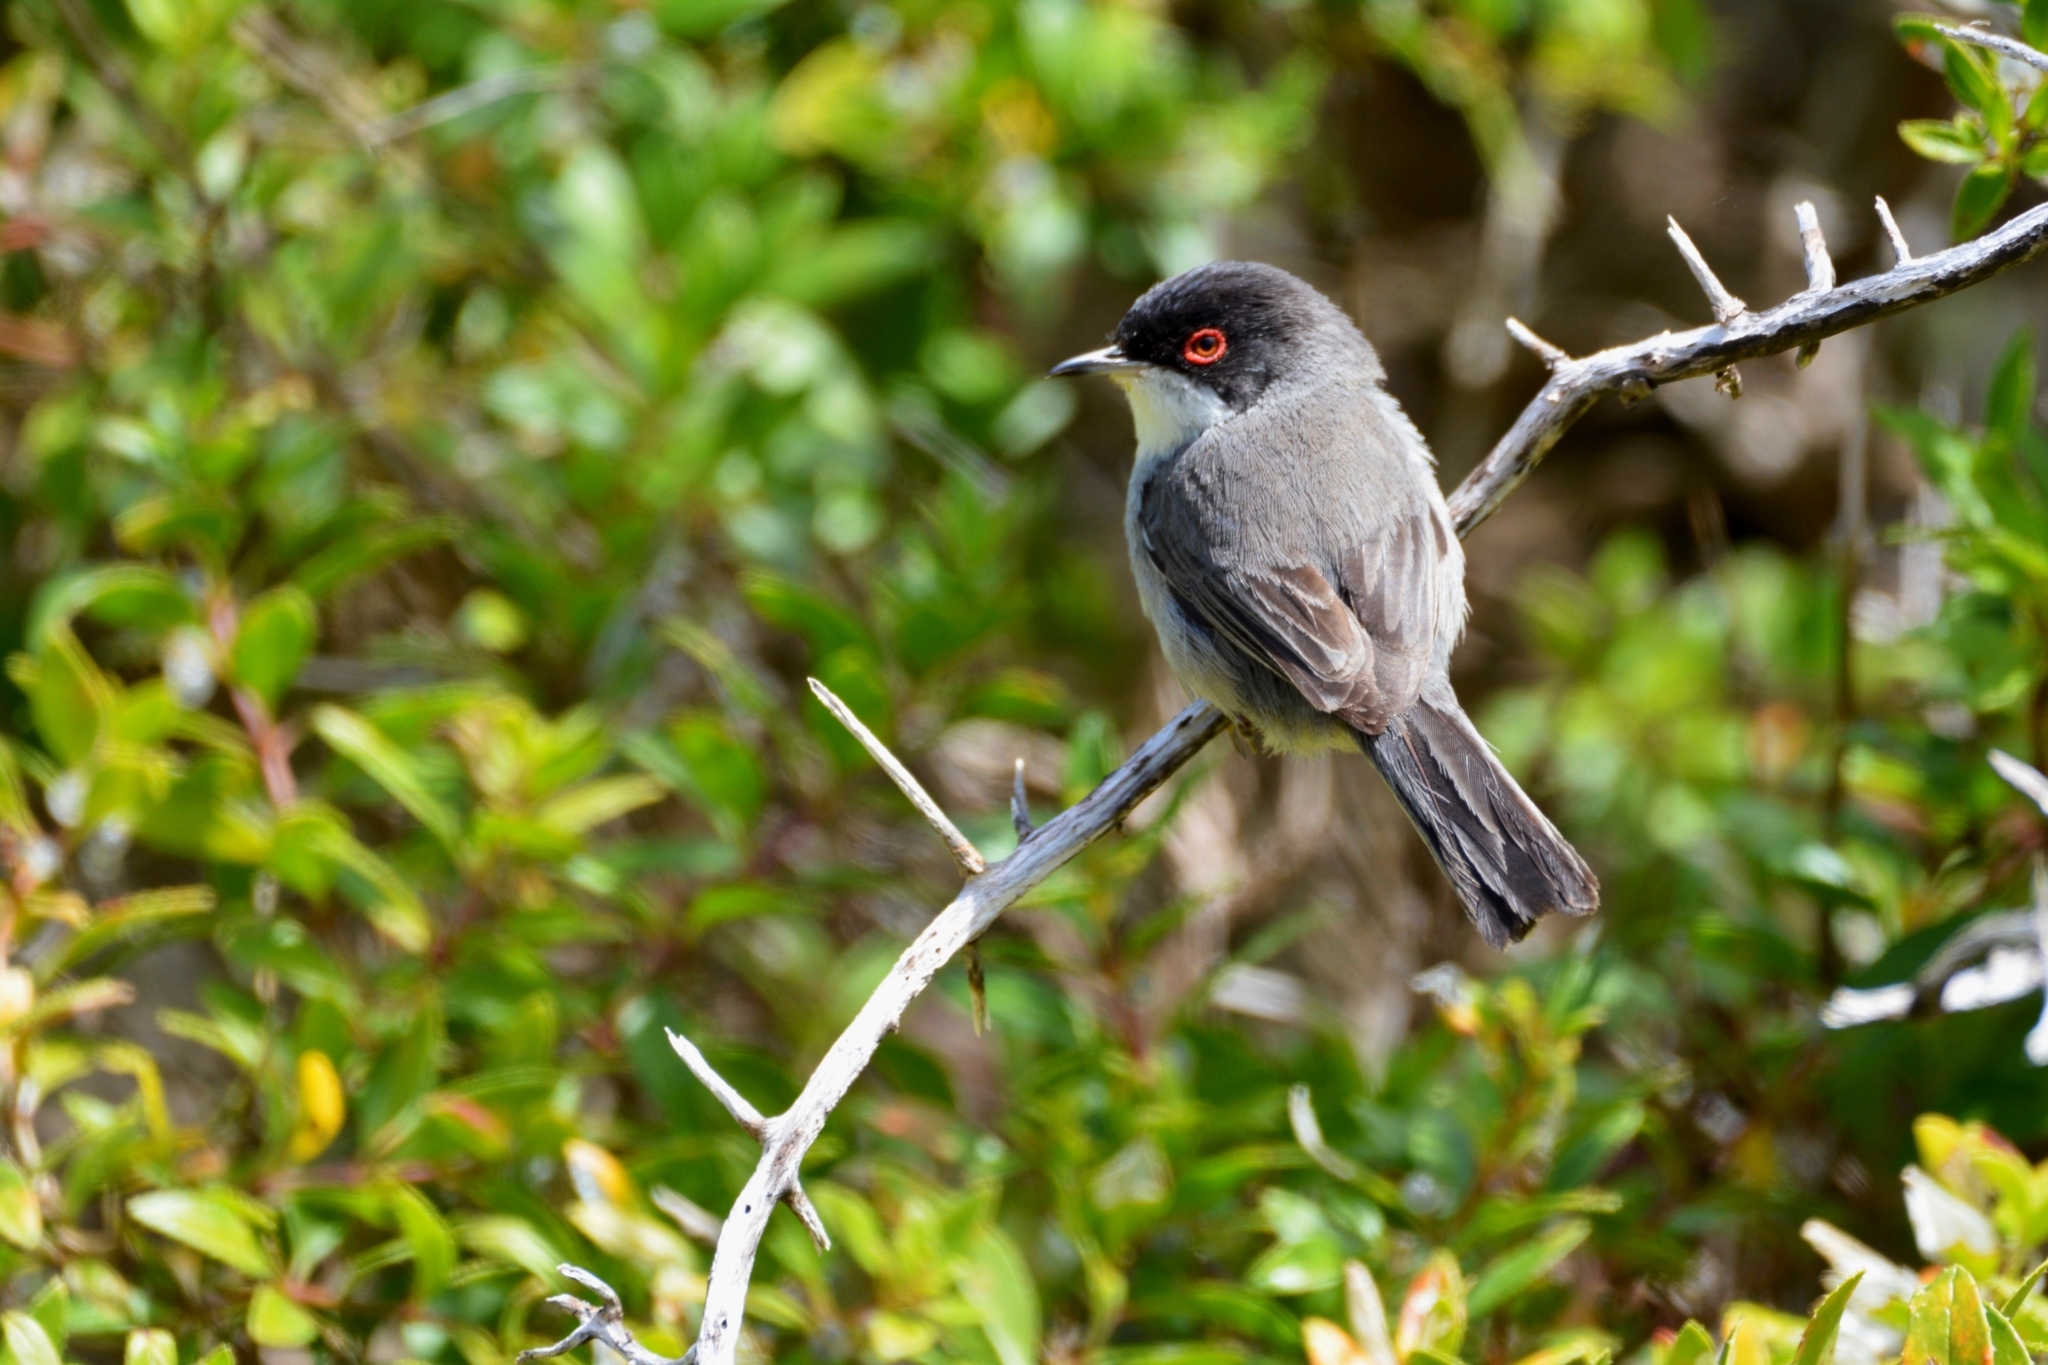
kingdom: Animalia
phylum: Chordata
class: Aves
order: Passeriformes
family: Sylviidae
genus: Curruca
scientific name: Curruca melanocephala
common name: Sardinian warbler
